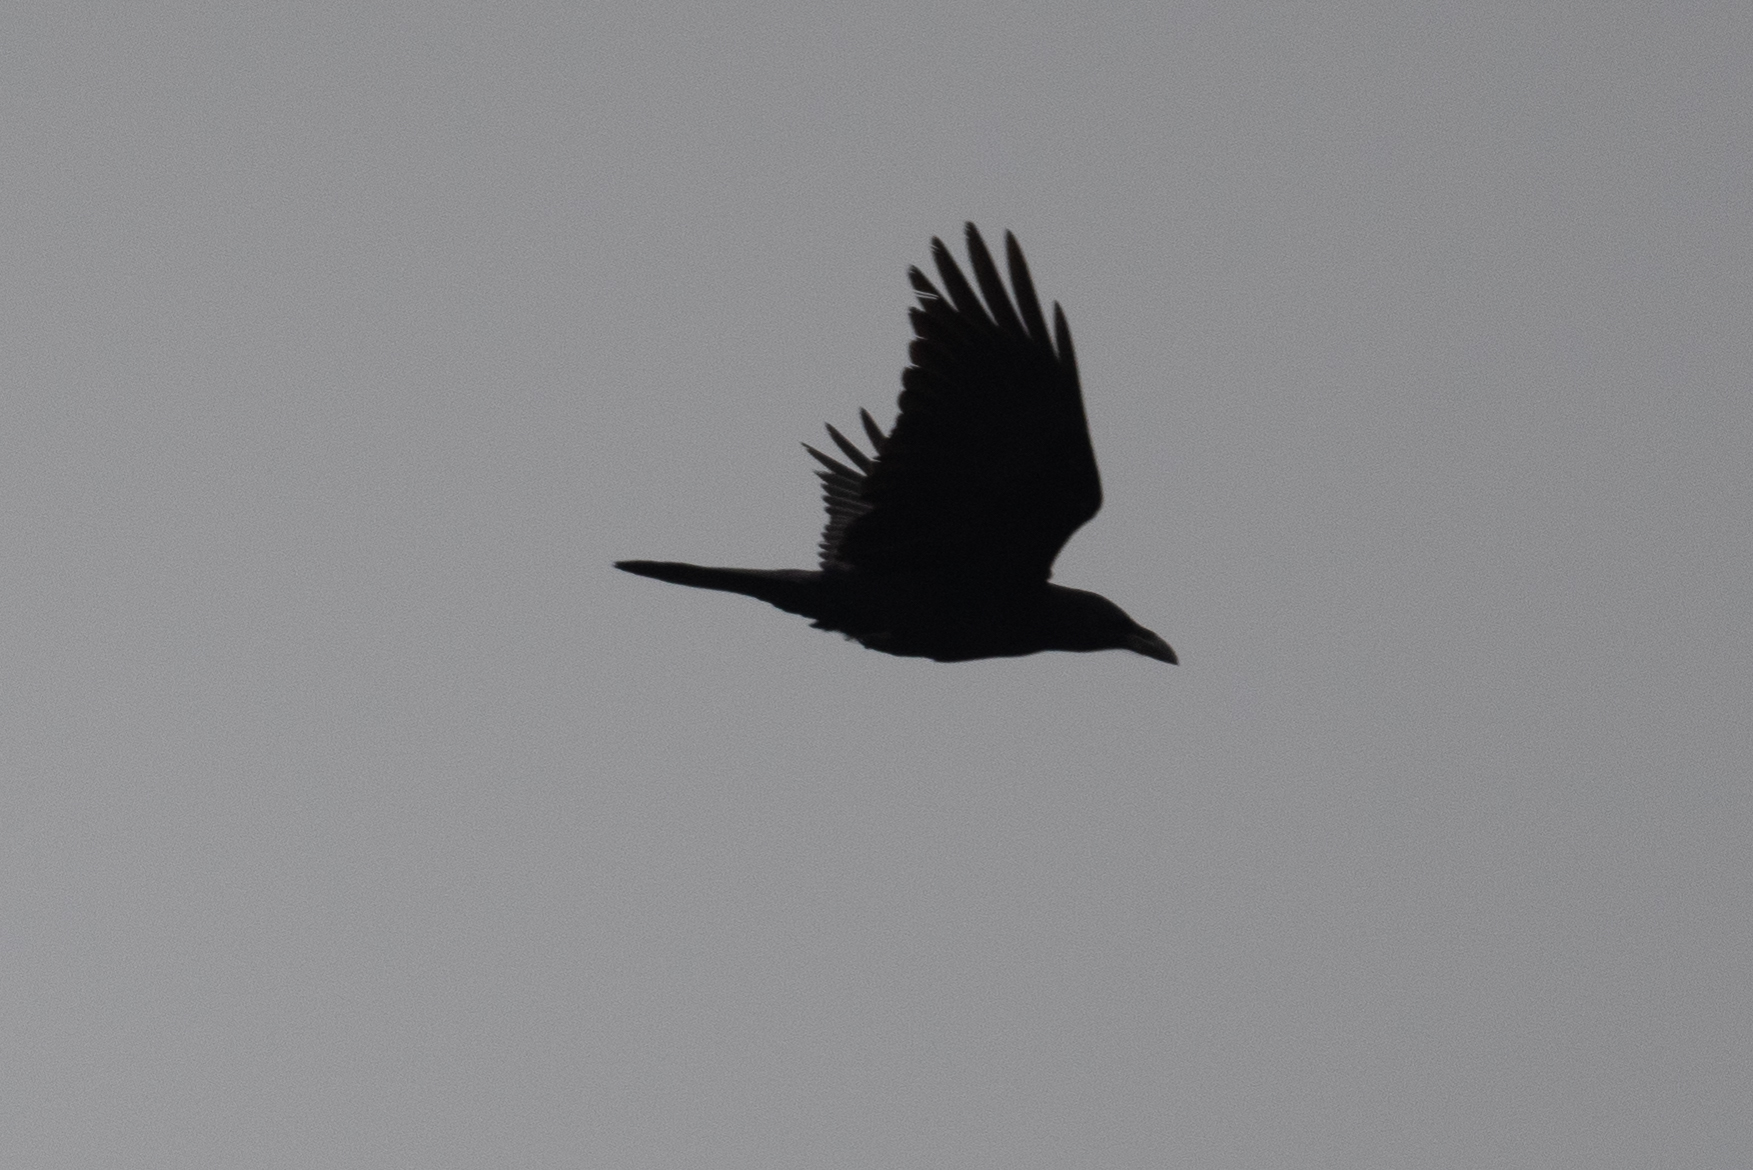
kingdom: Animalia
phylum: Chordata
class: Aves
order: Passeriformes
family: Corvidae
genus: Corvus
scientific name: Corvus corax
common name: Common raven
